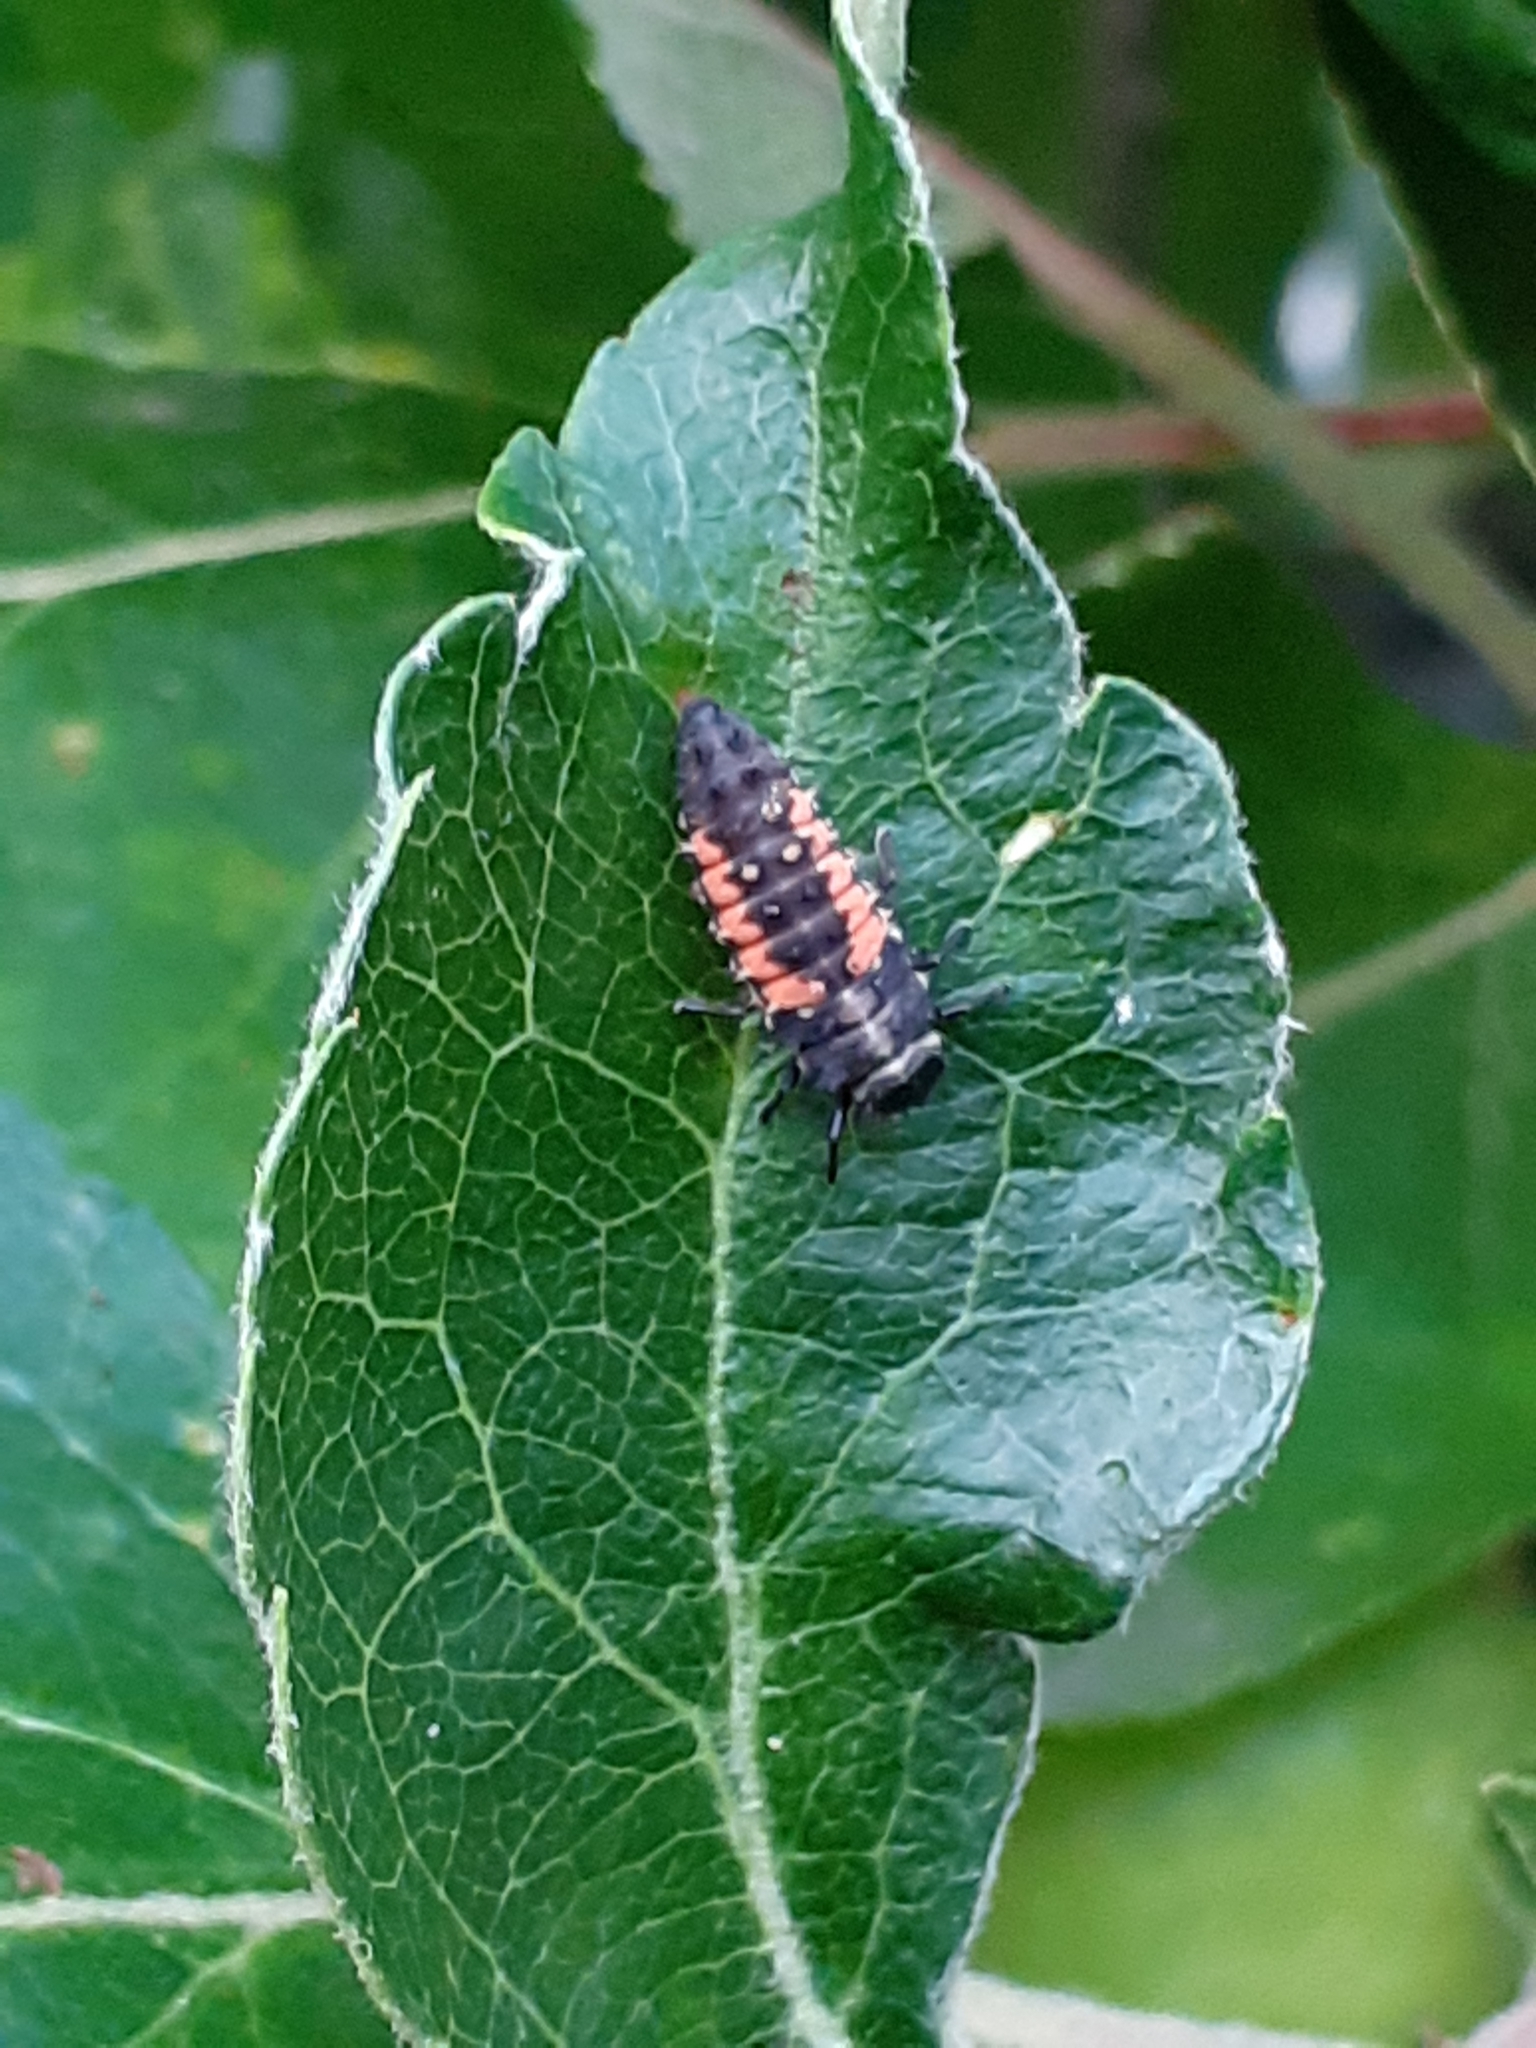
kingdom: Animalia
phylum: Arthropoda
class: Insecta
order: Coleoptera
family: Coccinellidae
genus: Harmonia
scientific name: Harmonia axyridis
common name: Harlequin ladybird
